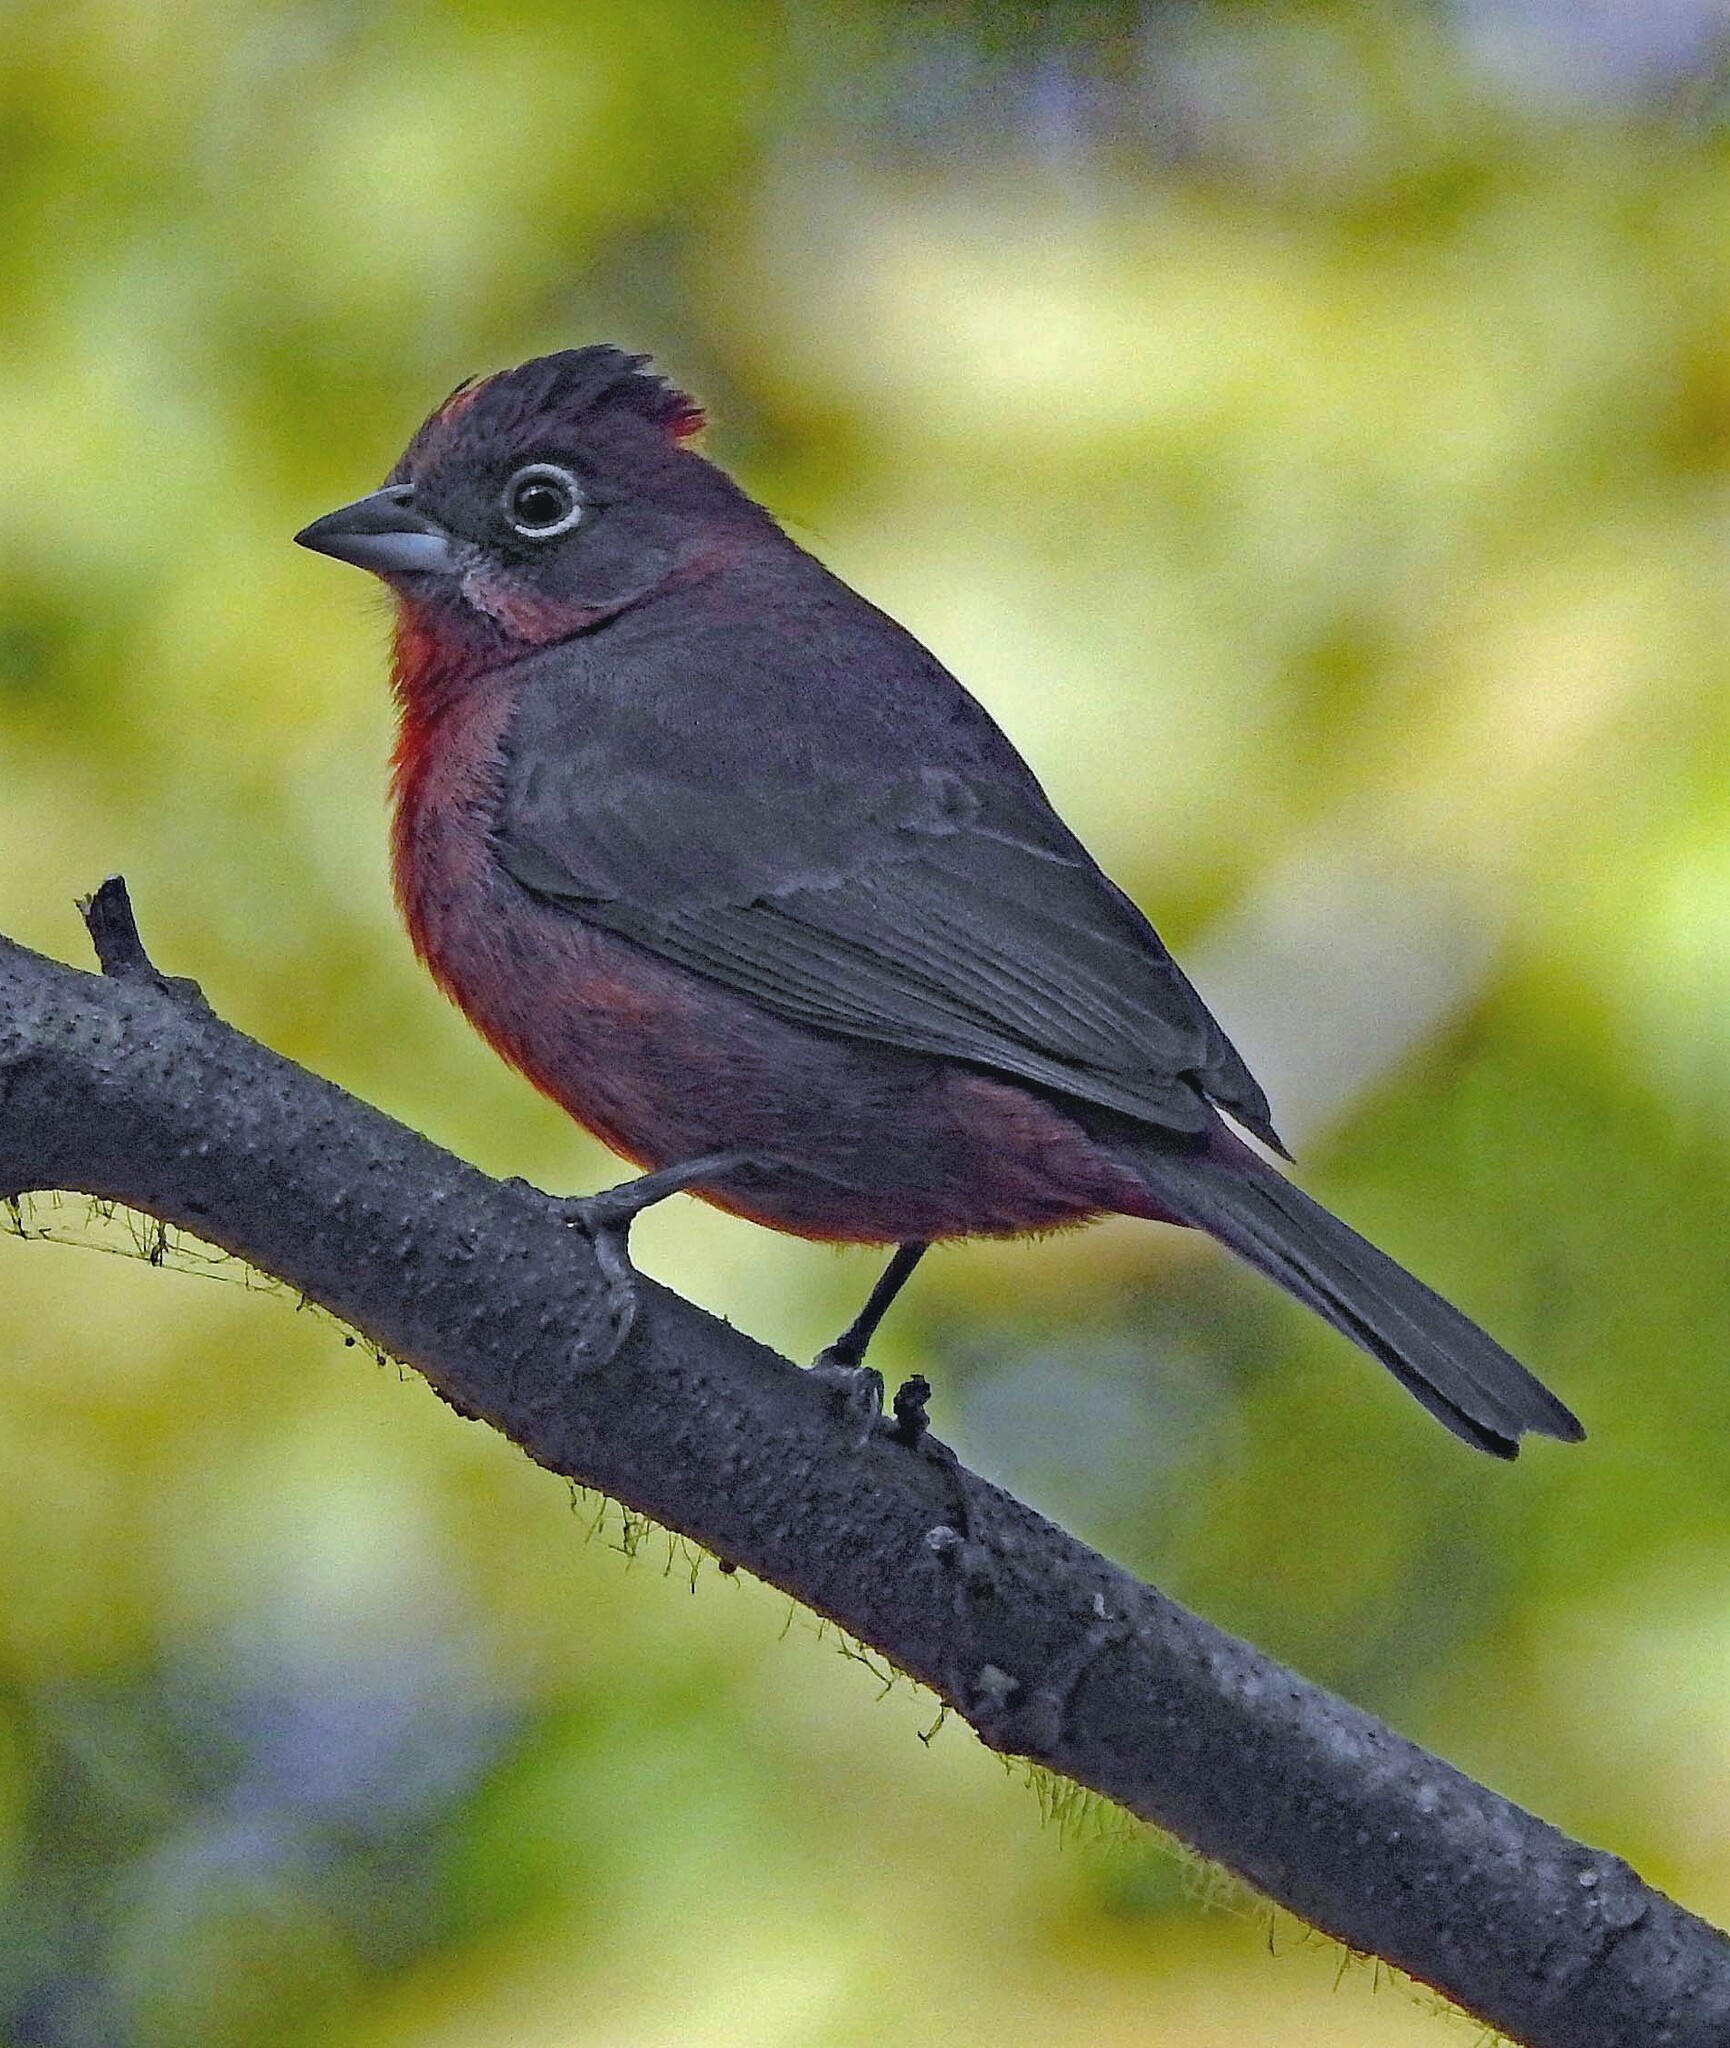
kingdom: Animalia
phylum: Chordata
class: Aves
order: Passeriformes
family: Thraupidae
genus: Coryphospingus
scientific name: Coryphospingus cucullatus
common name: Red pileated finch
